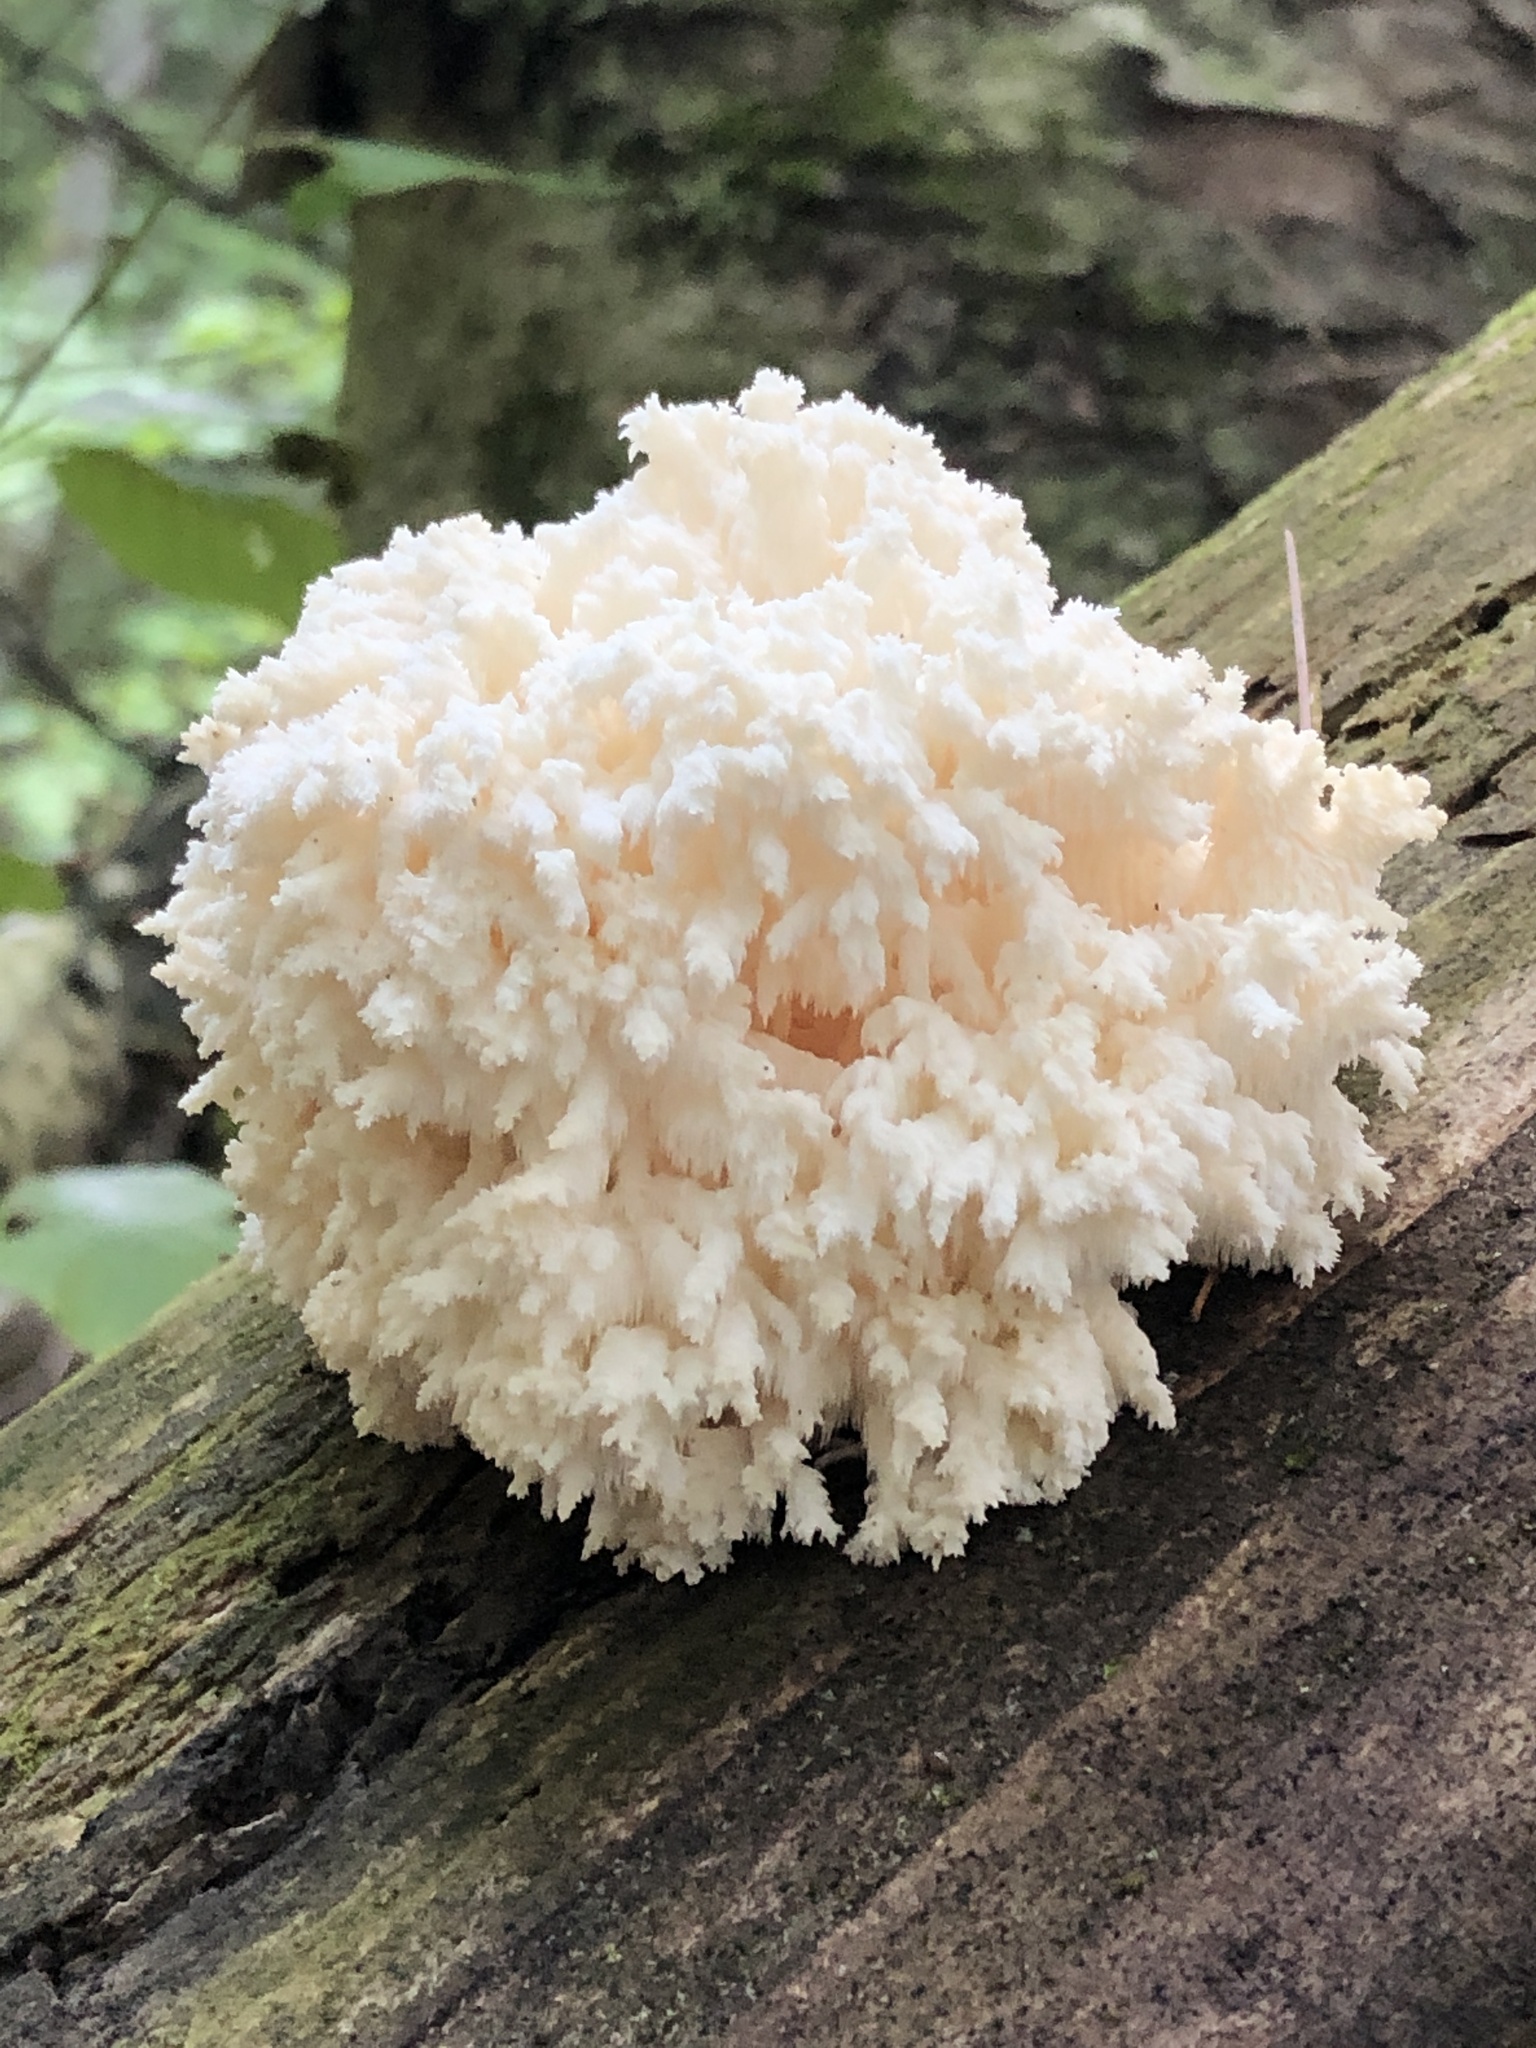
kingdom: Fungi
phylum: Basidiomycota
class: Agaricomycetes
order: Russulales
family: Hericiaceae
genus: Hericium
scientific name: Hericium coralloides
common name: Coral tooth
